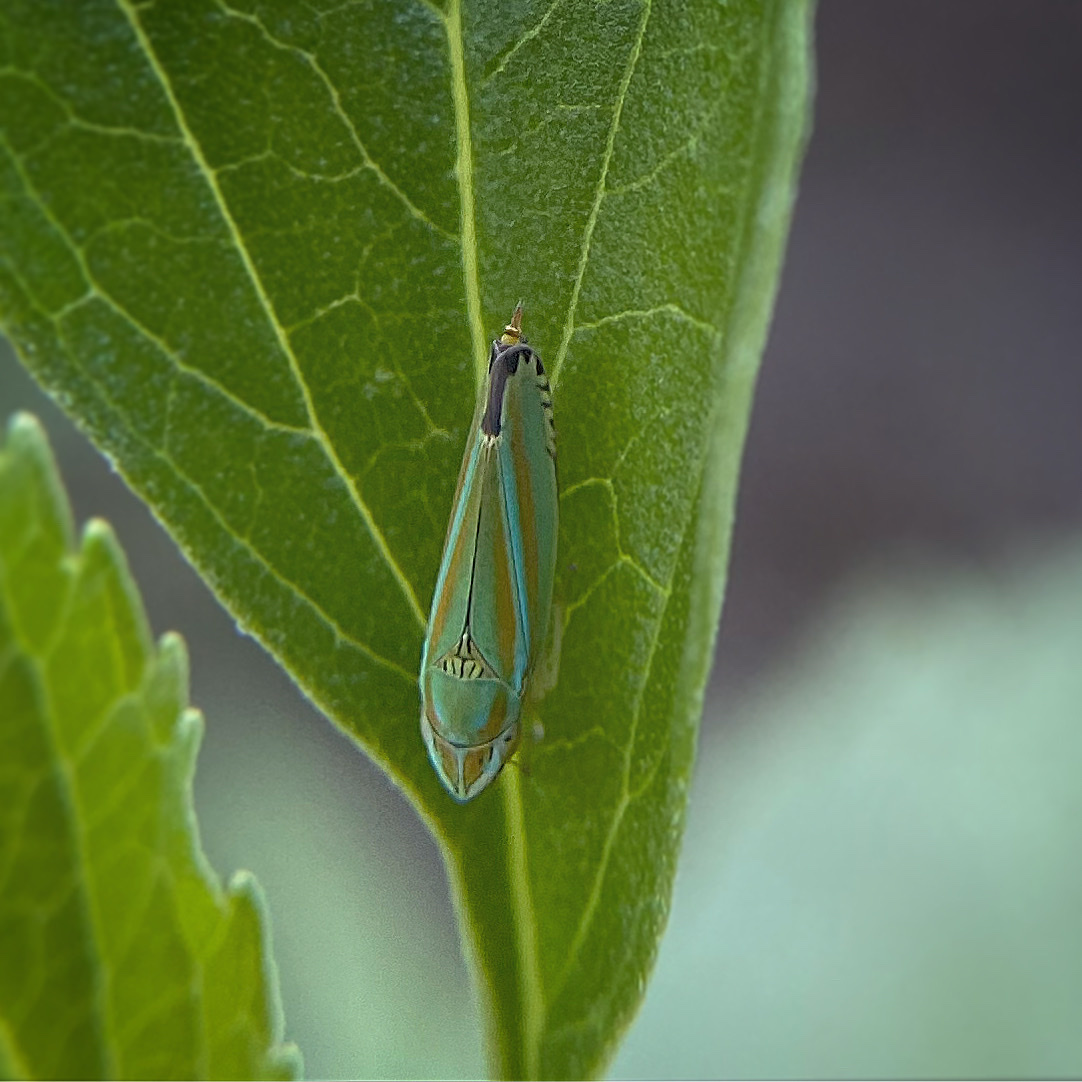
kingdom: Animalia
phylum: Arthropoda
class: Insecta
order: Hemiptera
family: Cicadellidae
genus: Graphocephala
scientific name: Graphocephala versuta
